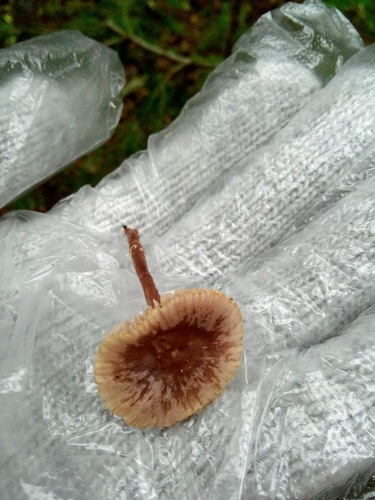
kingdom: Fungi
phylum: Basidiomycota
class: Agaricomycetes
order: Agaricales
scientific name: Agaricales
